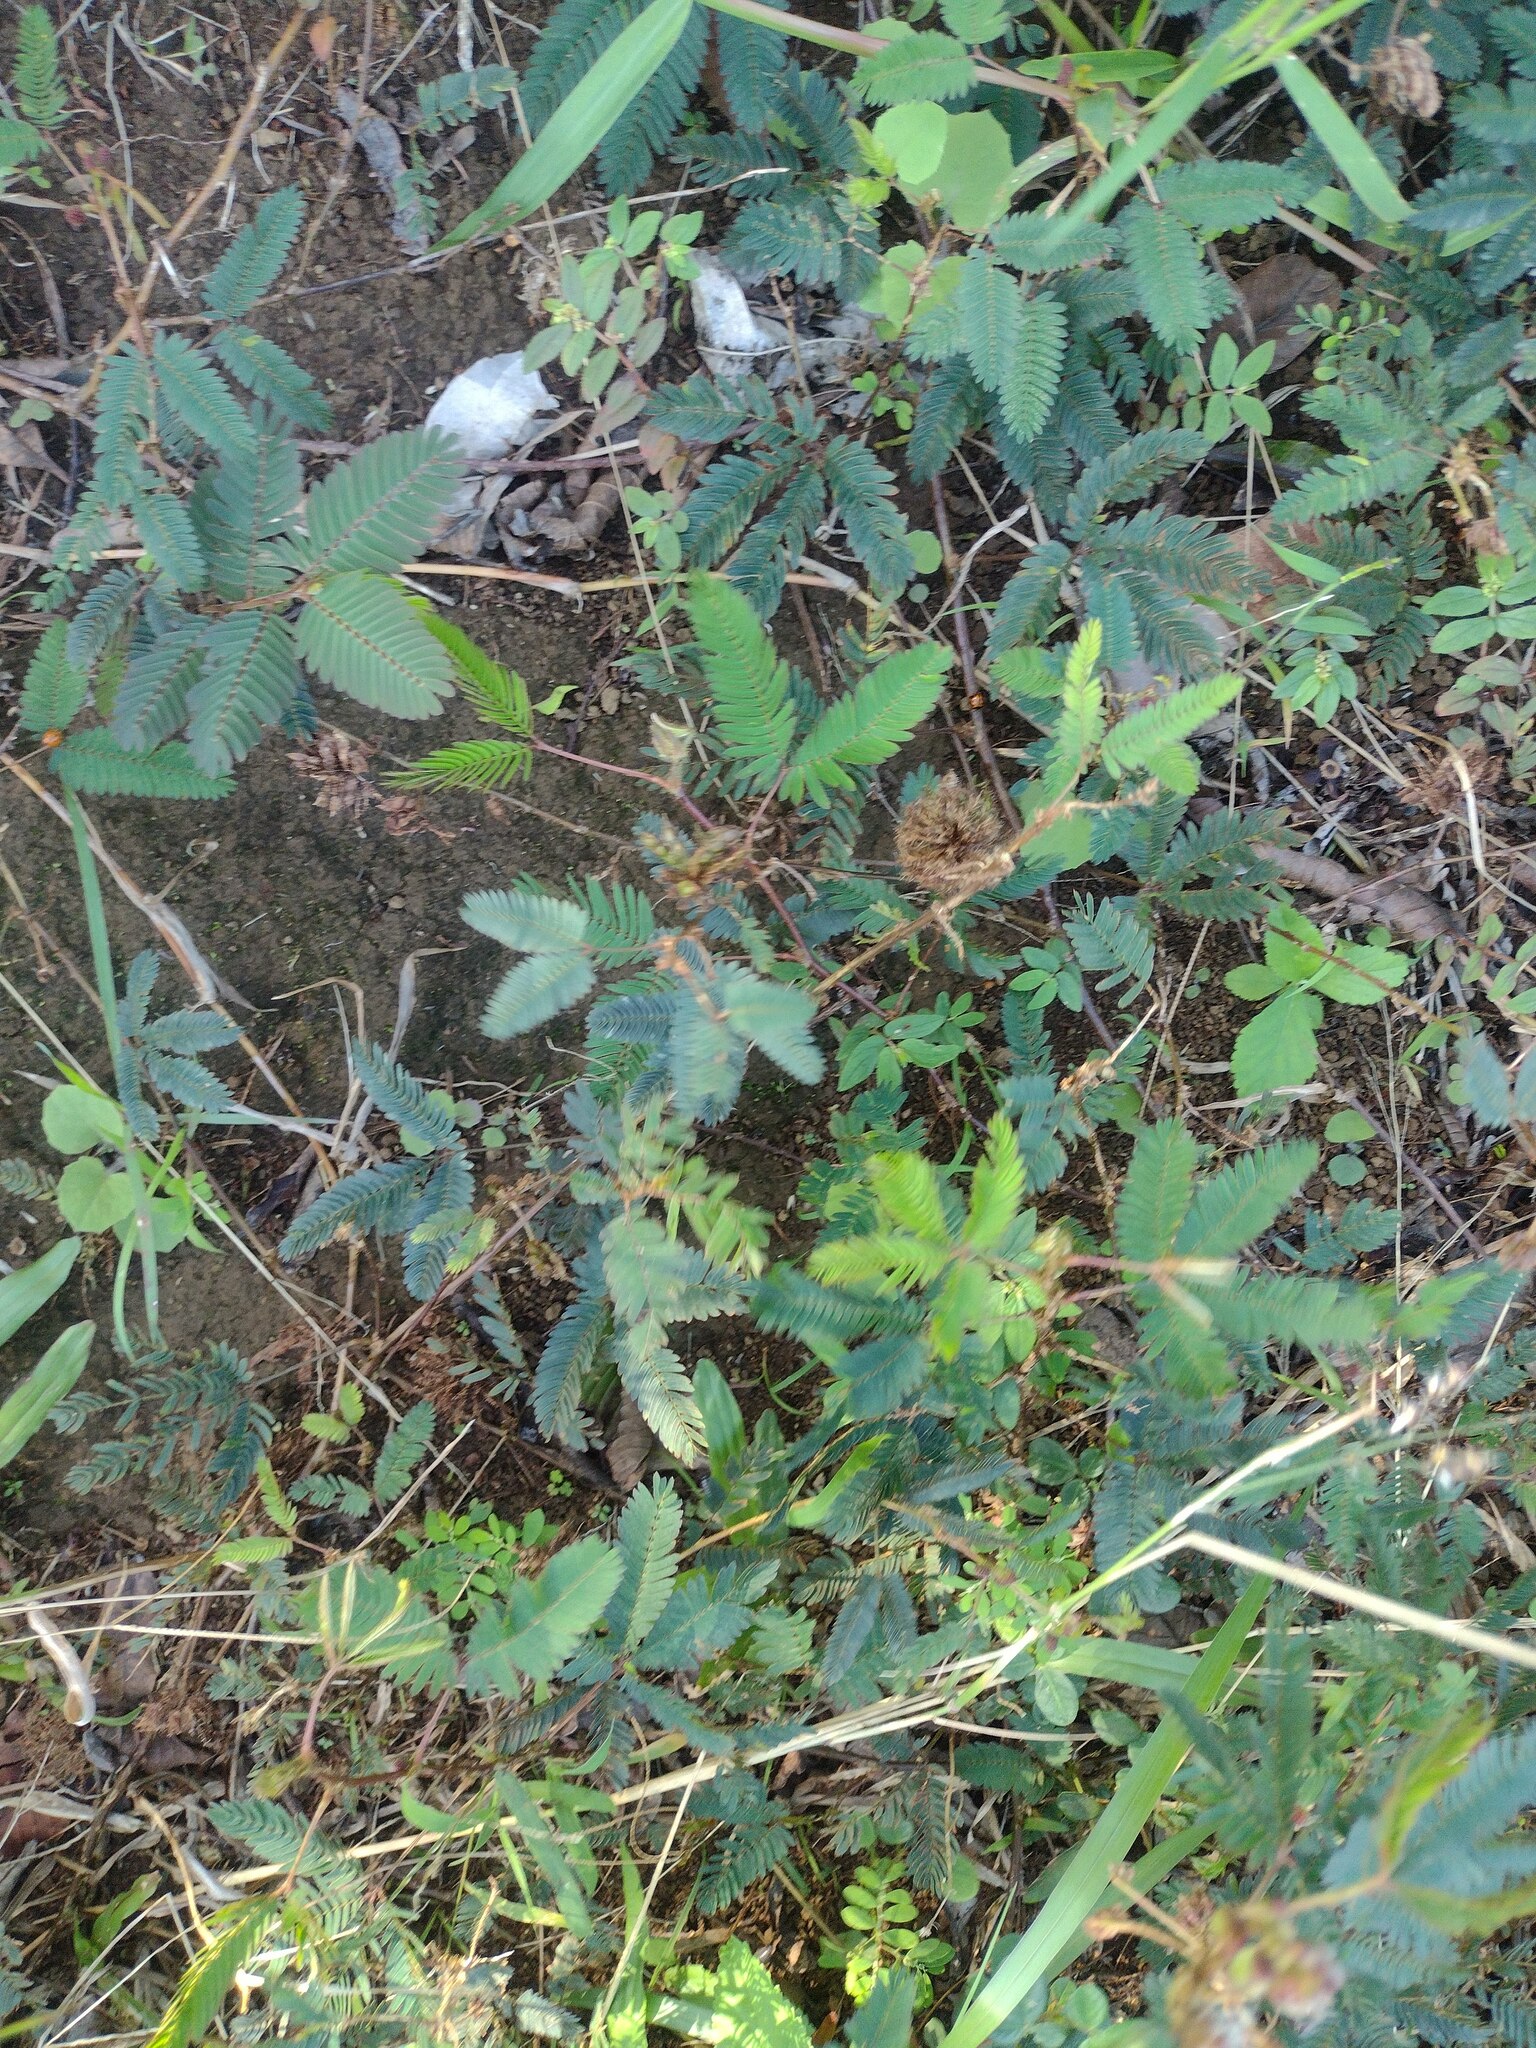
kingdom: Plantae
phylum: Tracheophyta
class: Magnoliopsida
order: Fabales
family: Fabaceae
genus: Mimosa
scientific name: Mimosa pudica
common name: Sensitive plant
